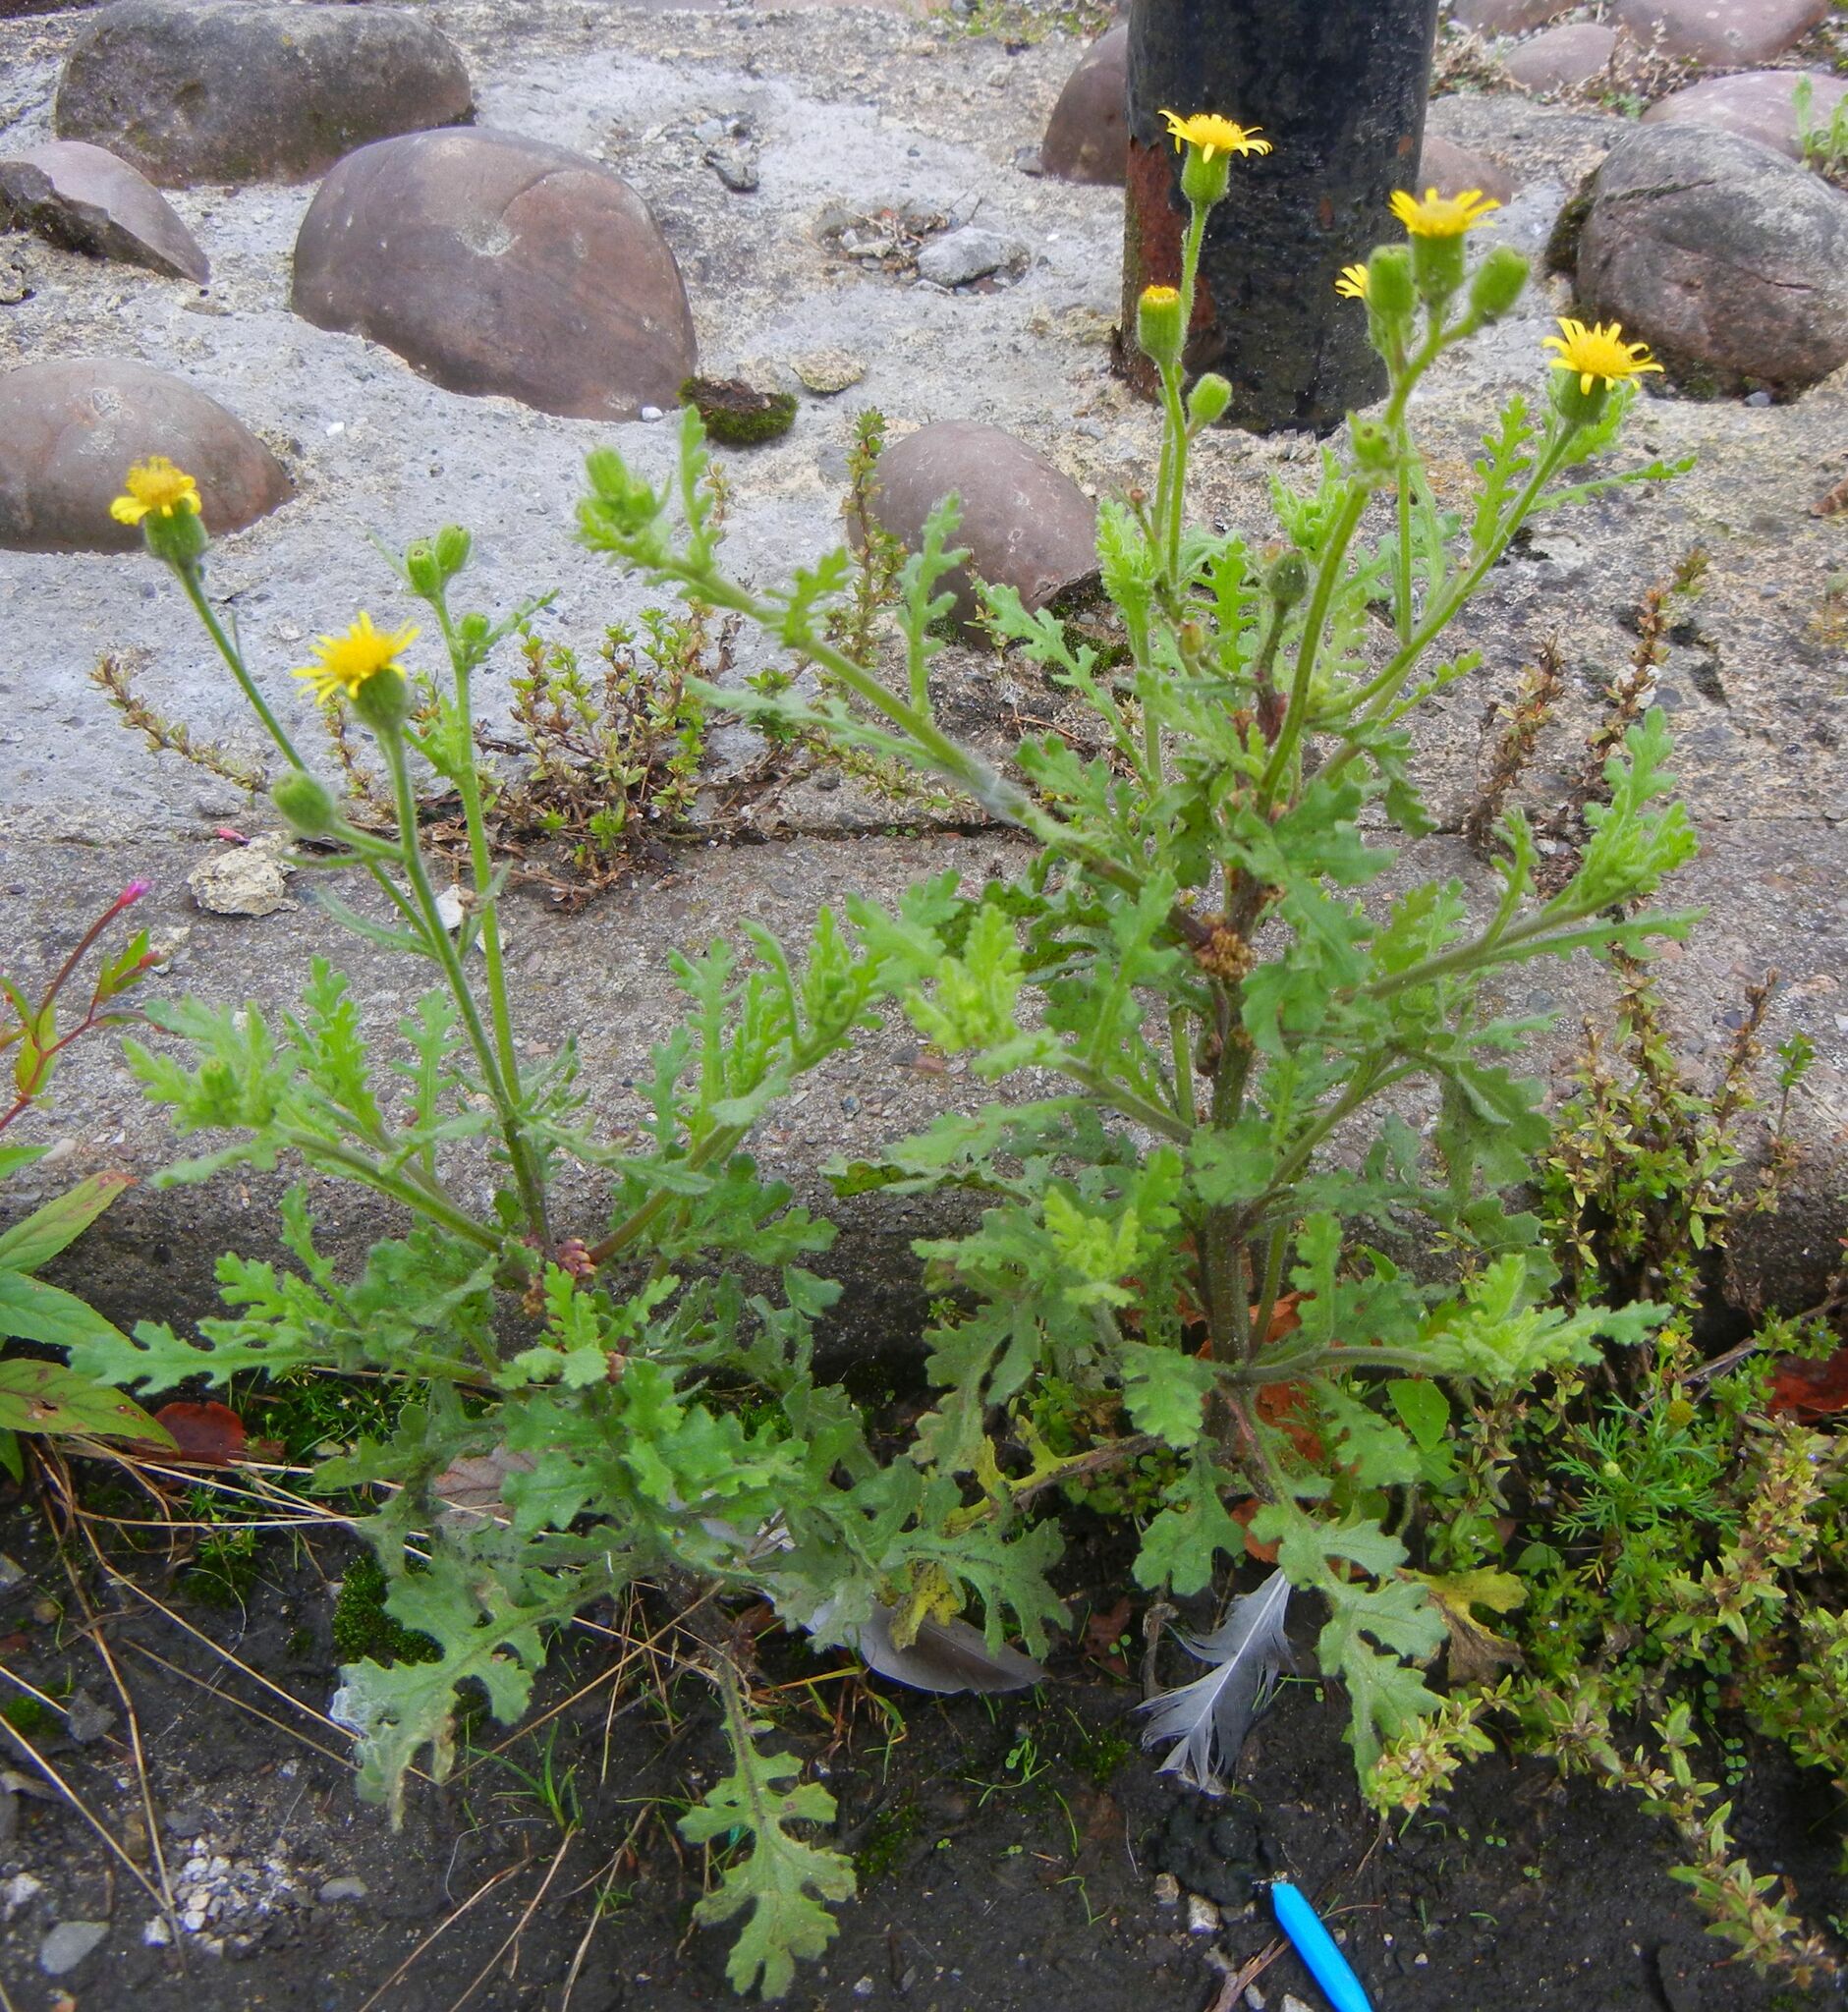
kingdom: Plantae
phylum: Tracheophyta
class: Magnoliopsida
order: Asterales
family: Asteraceae
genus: Senecio
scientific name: Senecio viscosus
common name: Sticky groundsel
